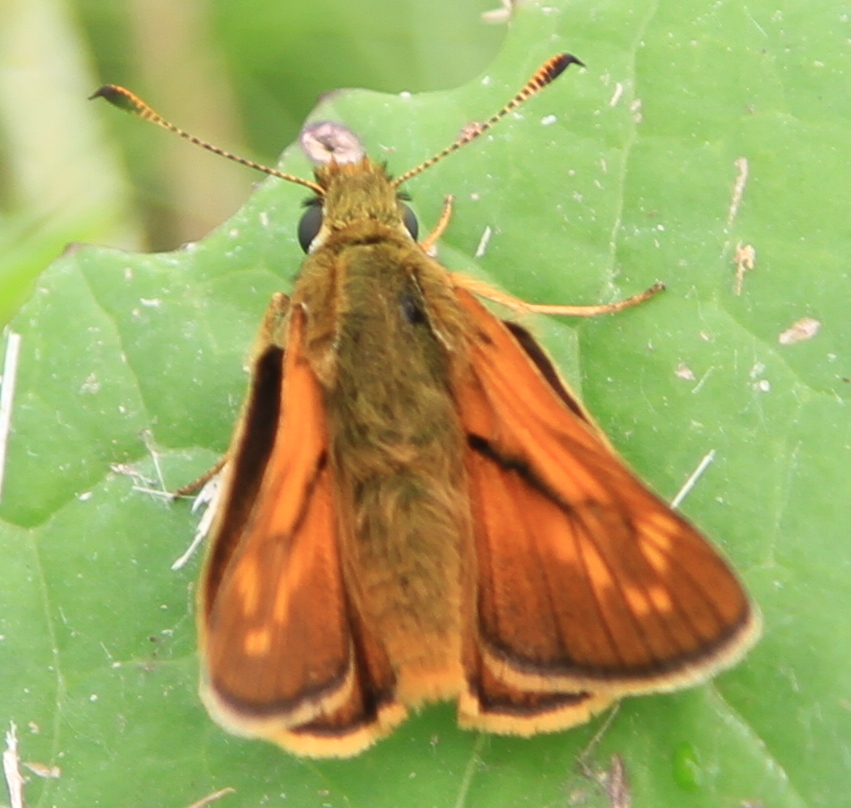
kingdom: Animalia
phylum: Arthropoda
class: Insecta
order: Lepidoptera
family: Hesperiidae
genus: Ochlodes
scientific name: Ochlodes venata
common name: Large skipper
